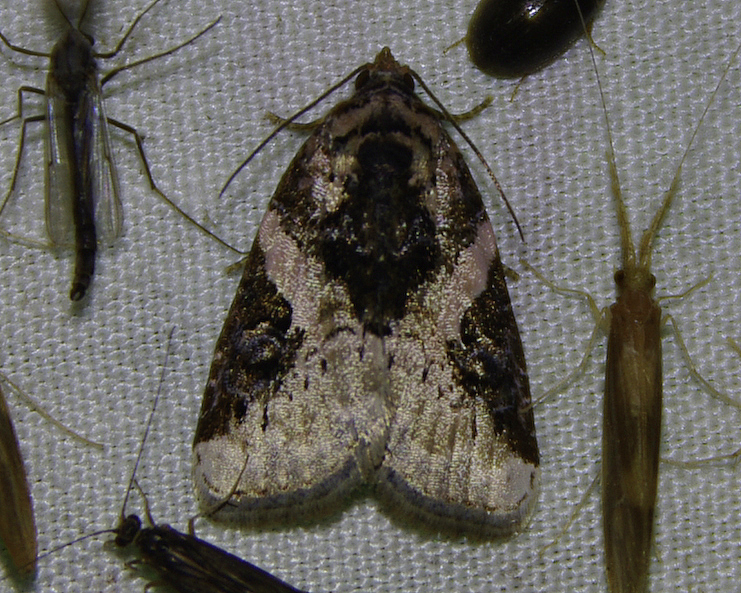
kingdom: Animalia
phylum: Arthropoda
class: Insecta
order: Lepidoptera
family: Noctuidae
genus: Pseudeustrotia
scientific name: Pseudeustrotia carneola
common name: Pink-barred lithacodia moth
